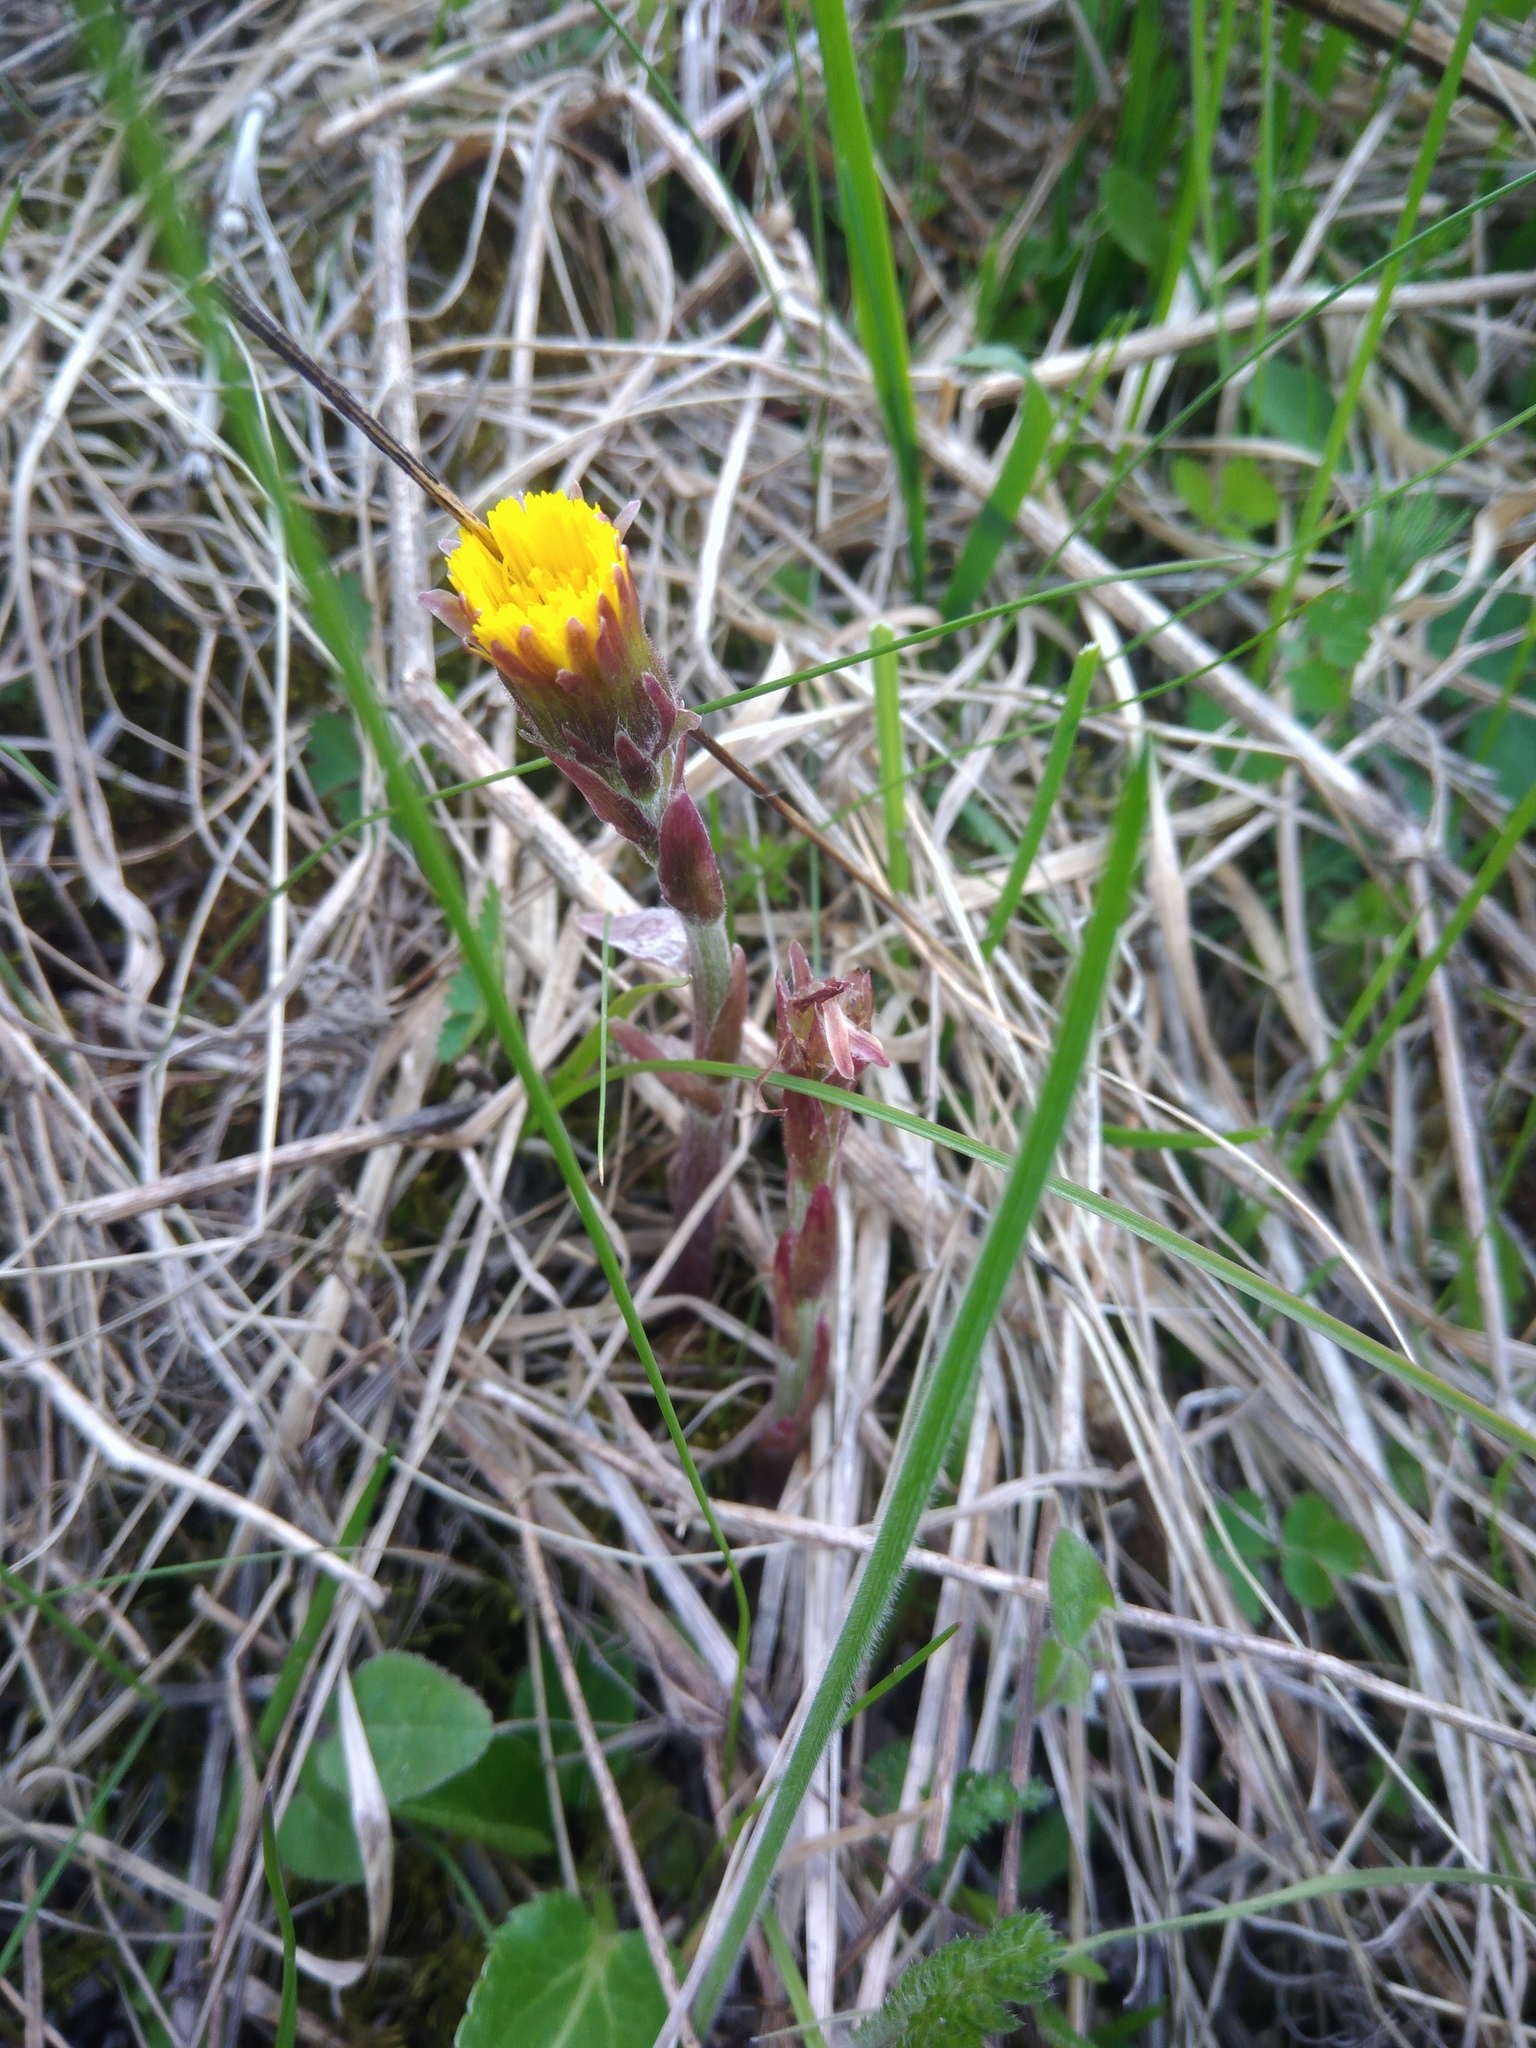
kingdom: Plantae
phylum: Tracheophyta
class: Magnoliopsida
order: Asterales
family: Asteraceae
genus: Tussilago
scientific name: Tussilago farfara
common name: Coltsfoot
